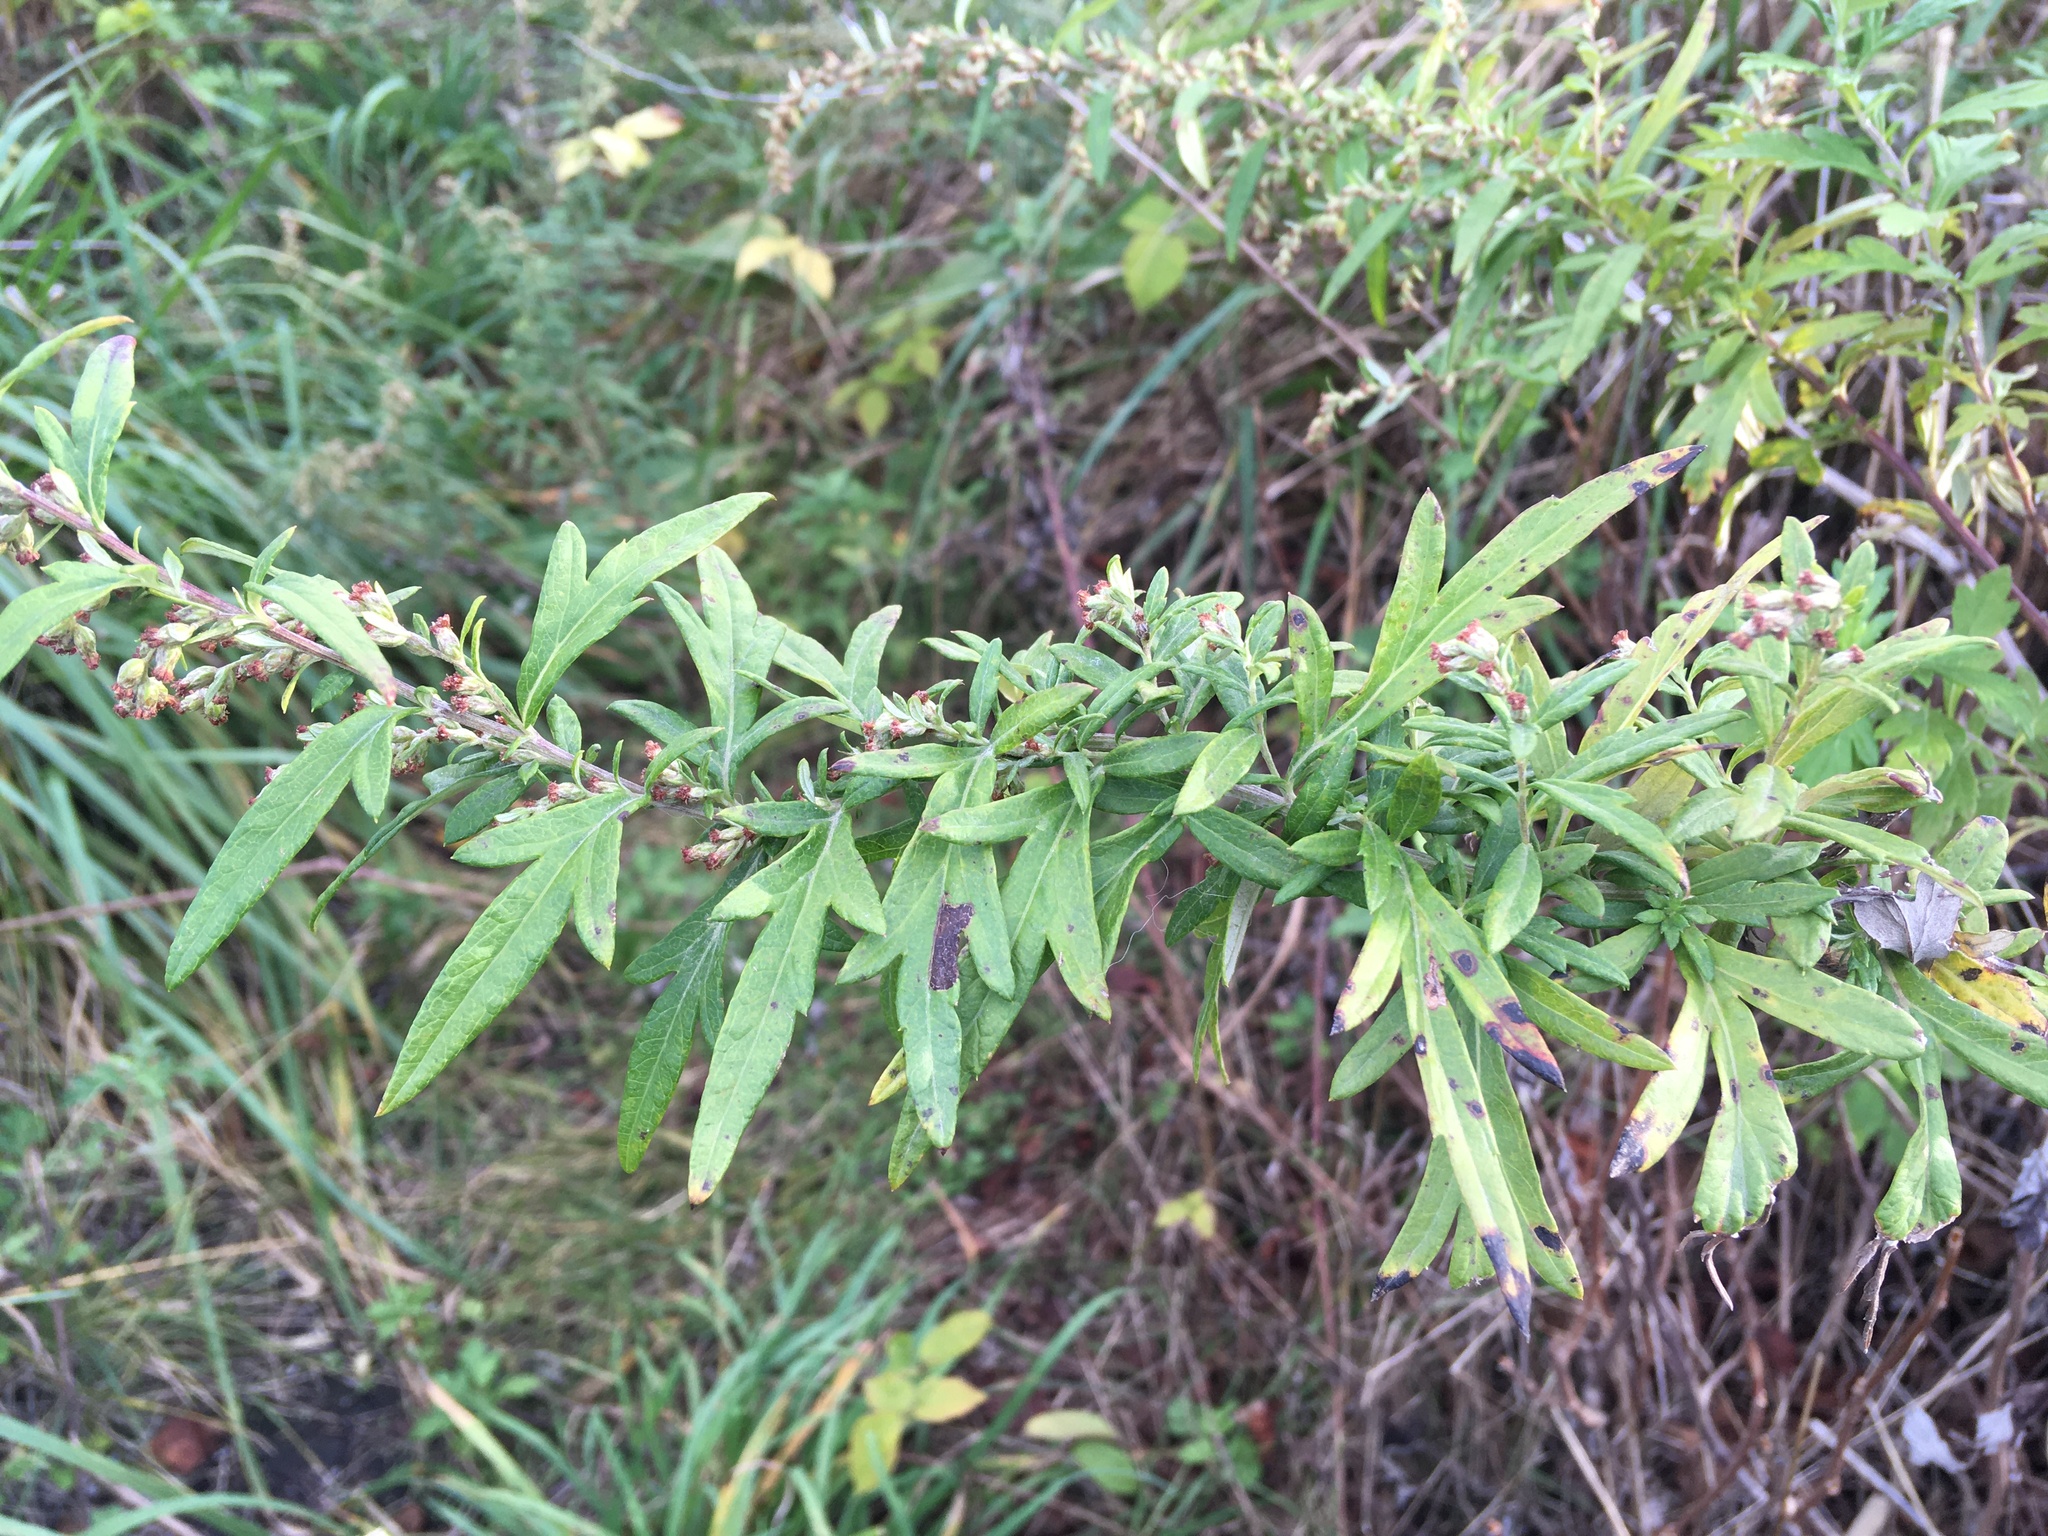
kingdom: Plantae
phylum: Tracheophyta
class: Magnoliopsida
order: Asterales
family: Asteraceae
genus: Artemisia
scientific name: Artemisia vulgaris
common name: Mugwort
